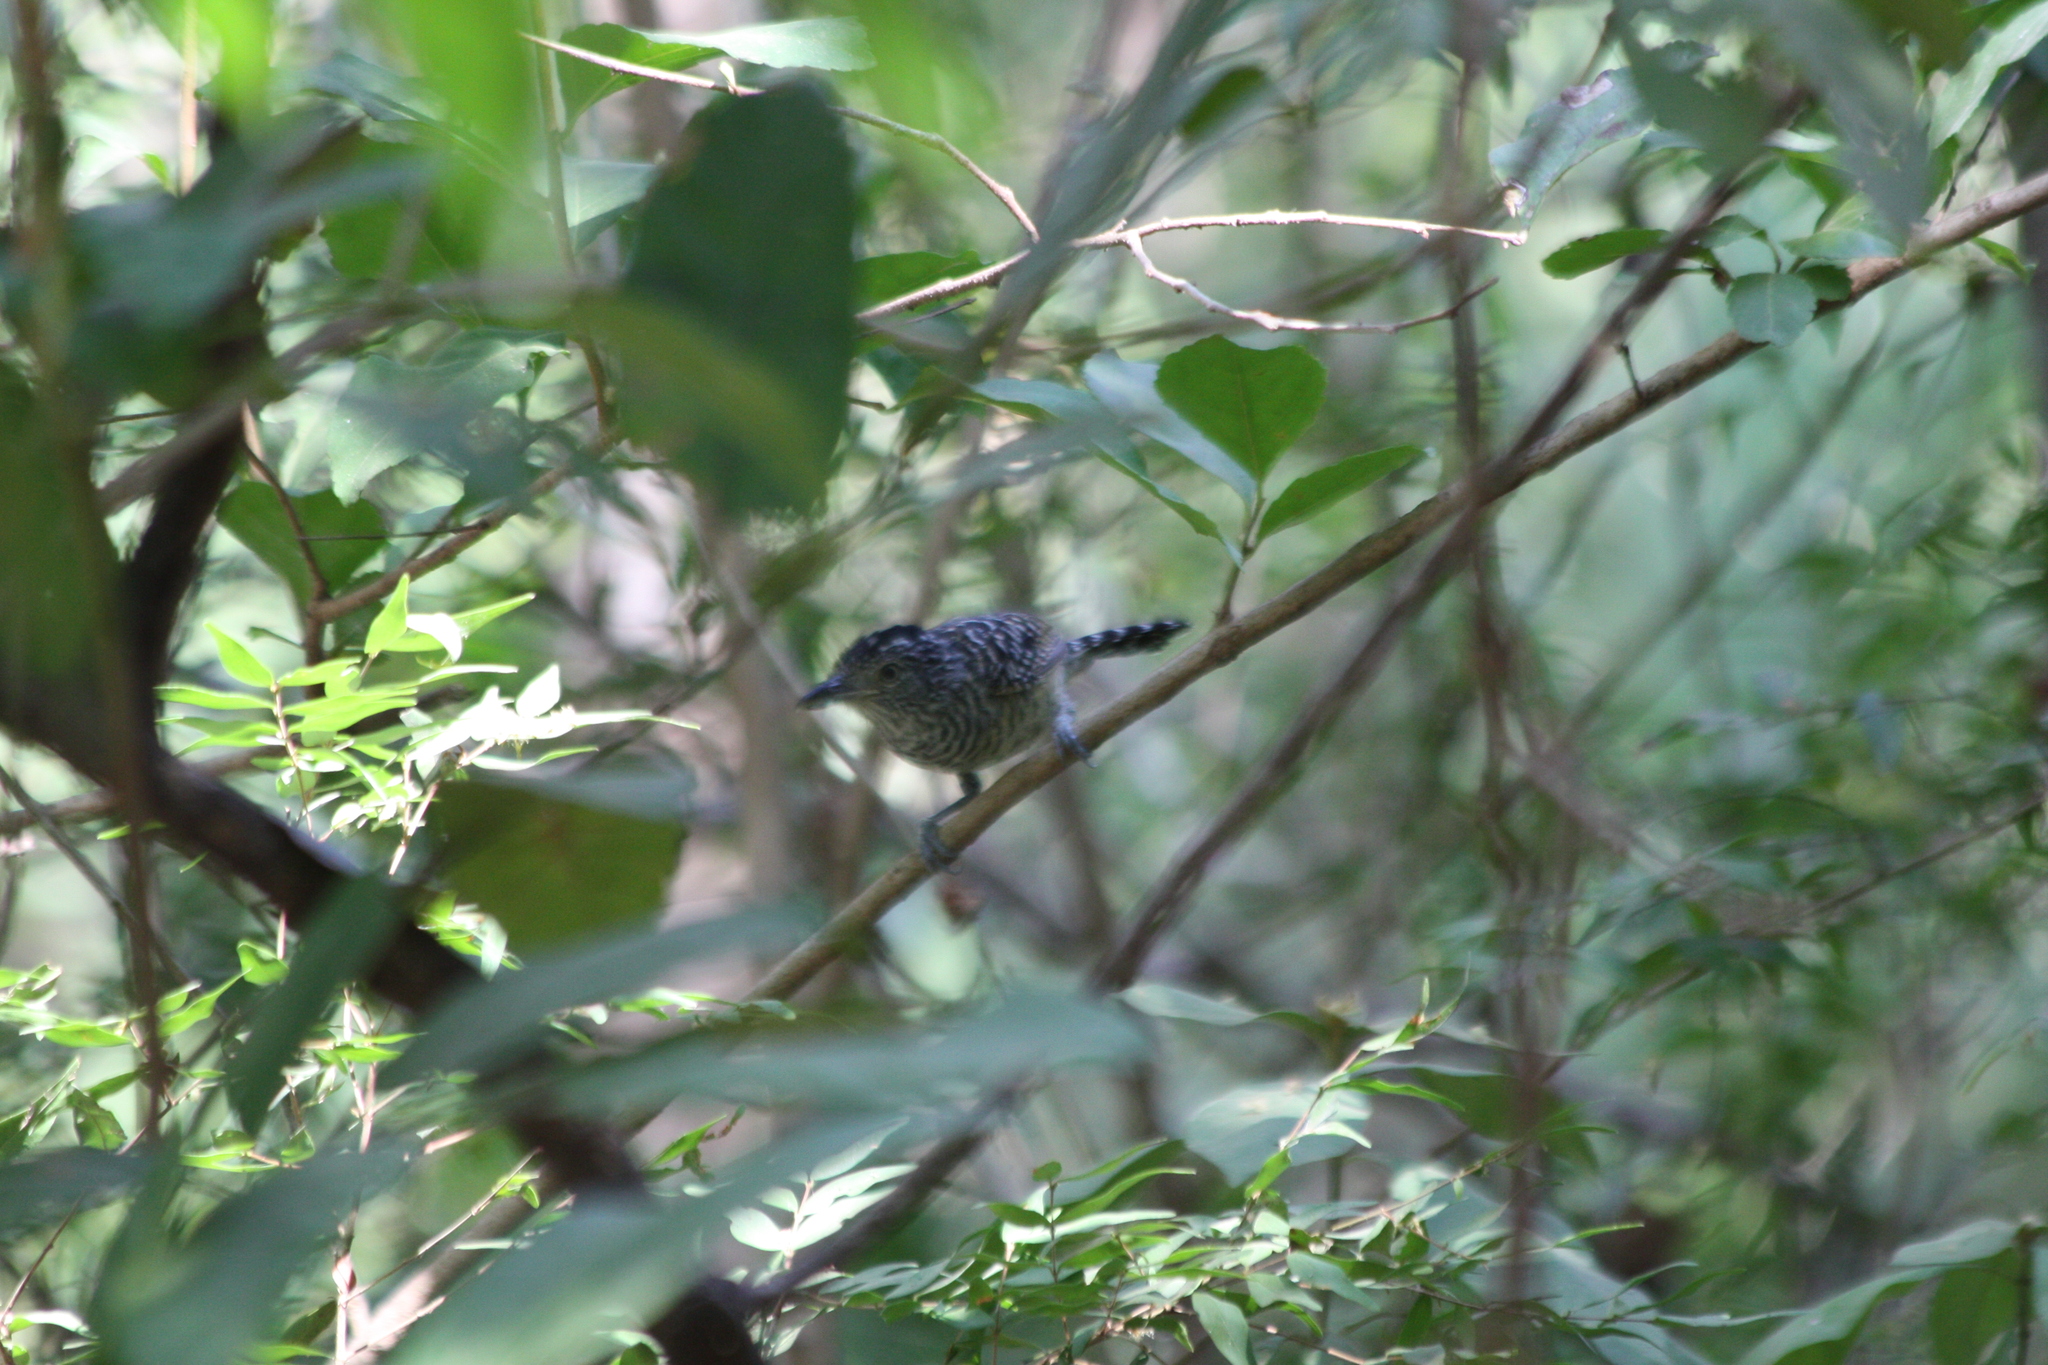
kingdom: Animalia
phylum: Chordata
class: Aves
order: Passeriformes
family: Thamnophilidae
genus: Thamnophilus
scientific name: Thamnophilus doliatus
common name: Barred antshrike
